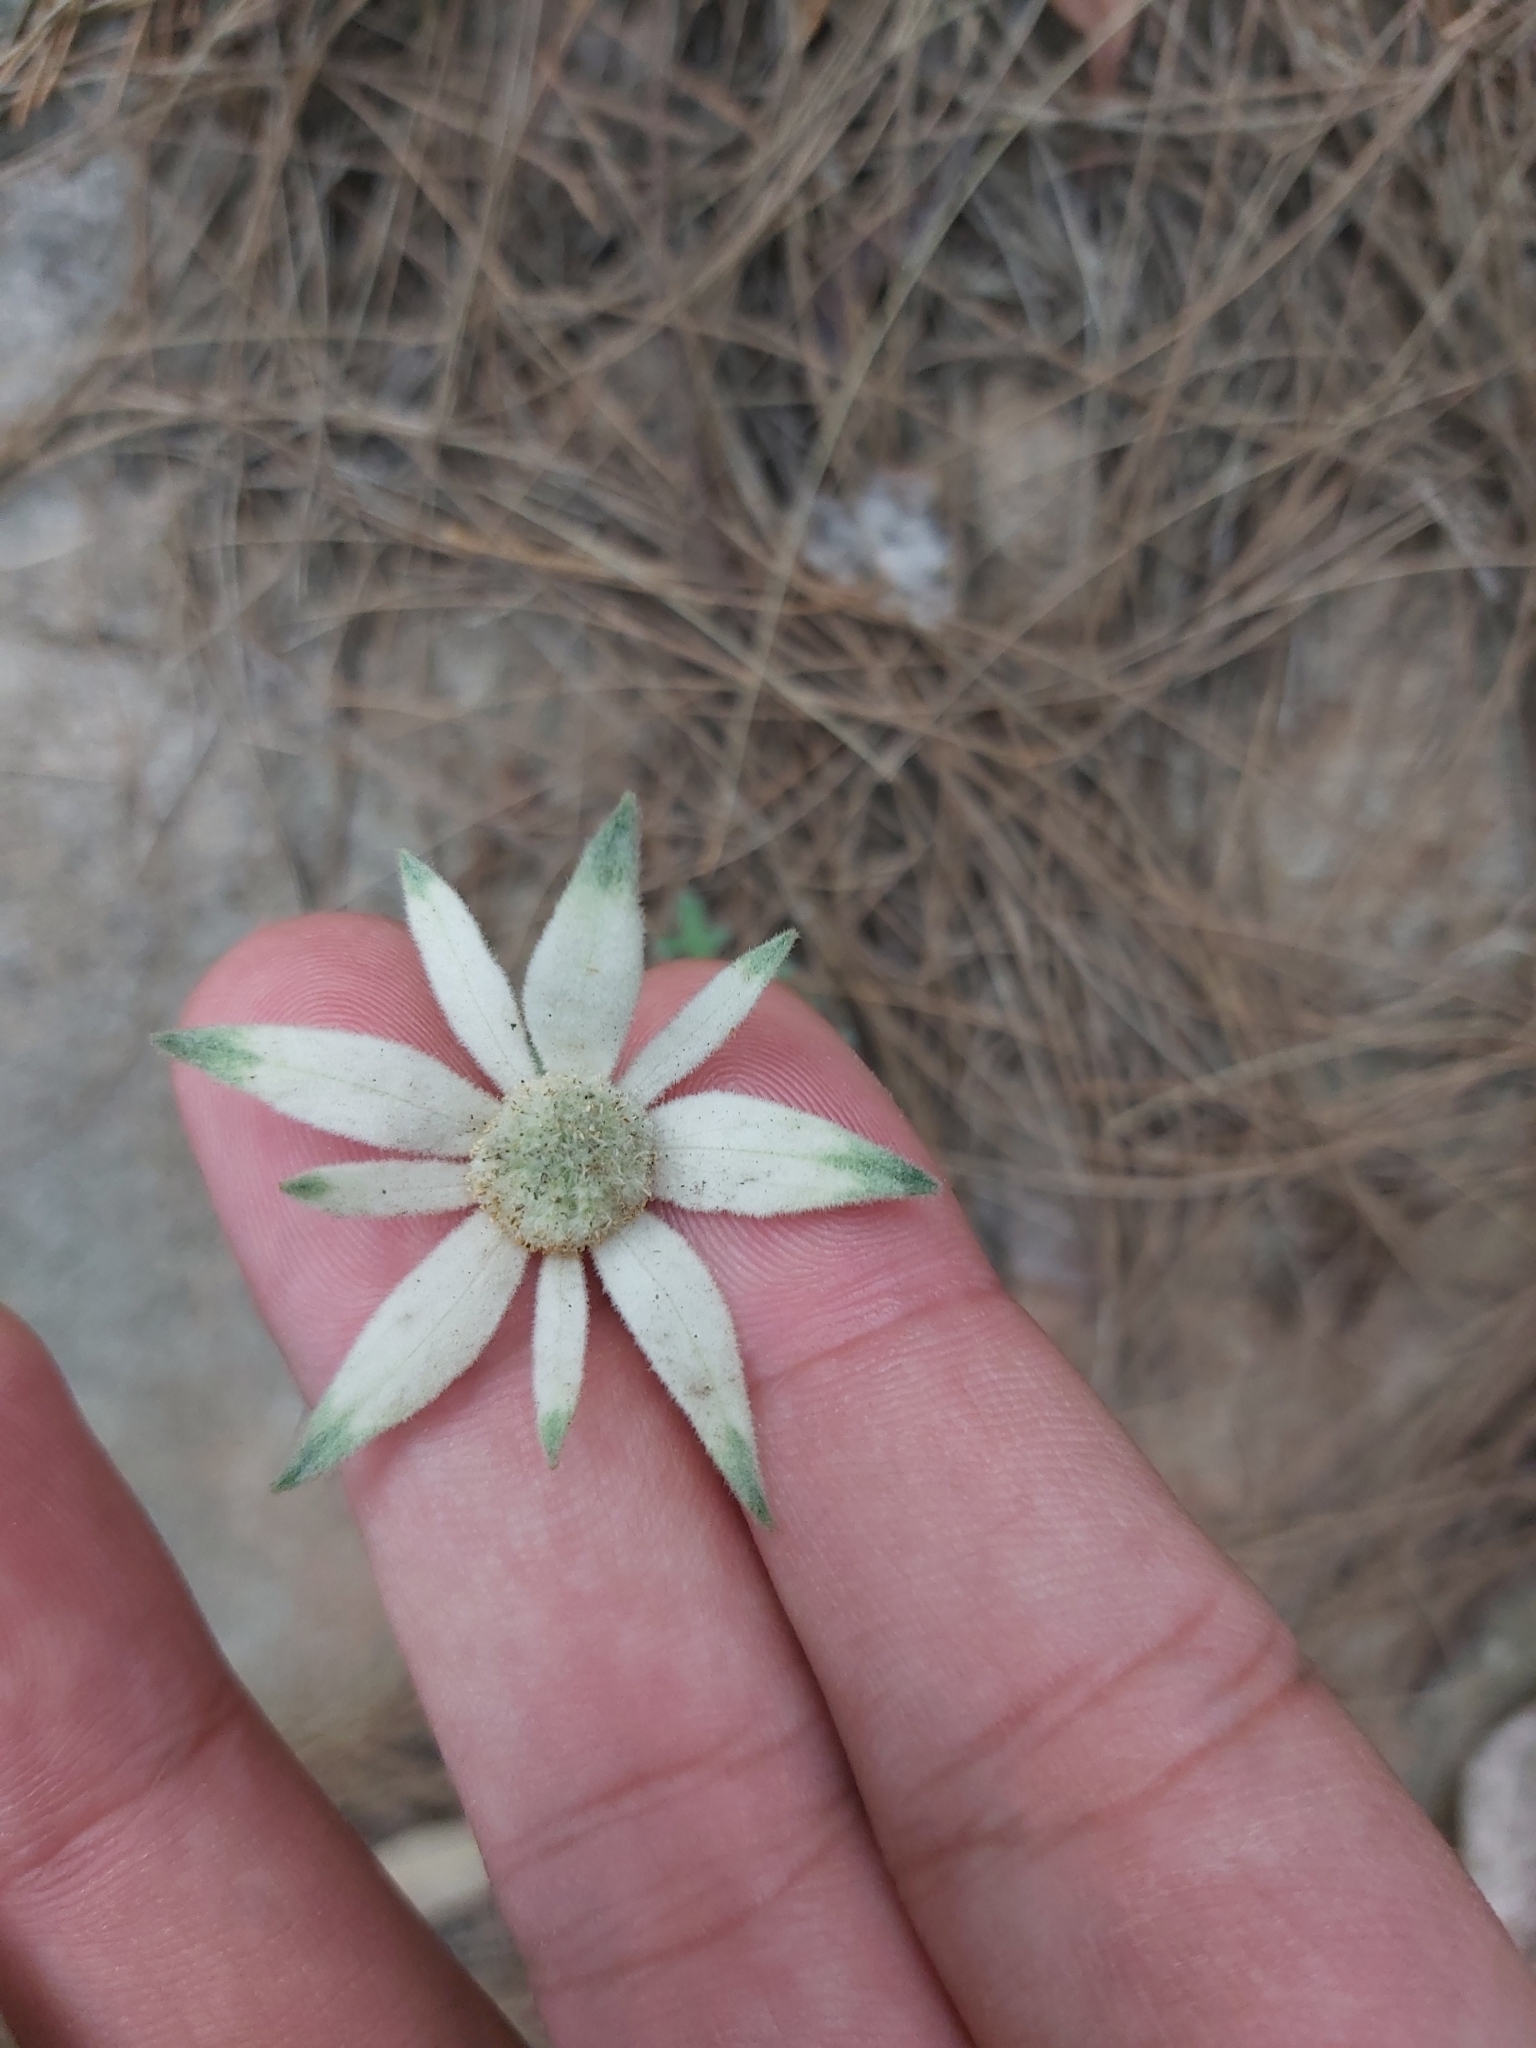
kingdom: Plantae
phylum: Tracheophyta
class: Magnoliopsida
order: Apiales
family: Apiaceae
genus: Actinotus
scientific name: Actinotus helianthi
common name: Flannel-flower
